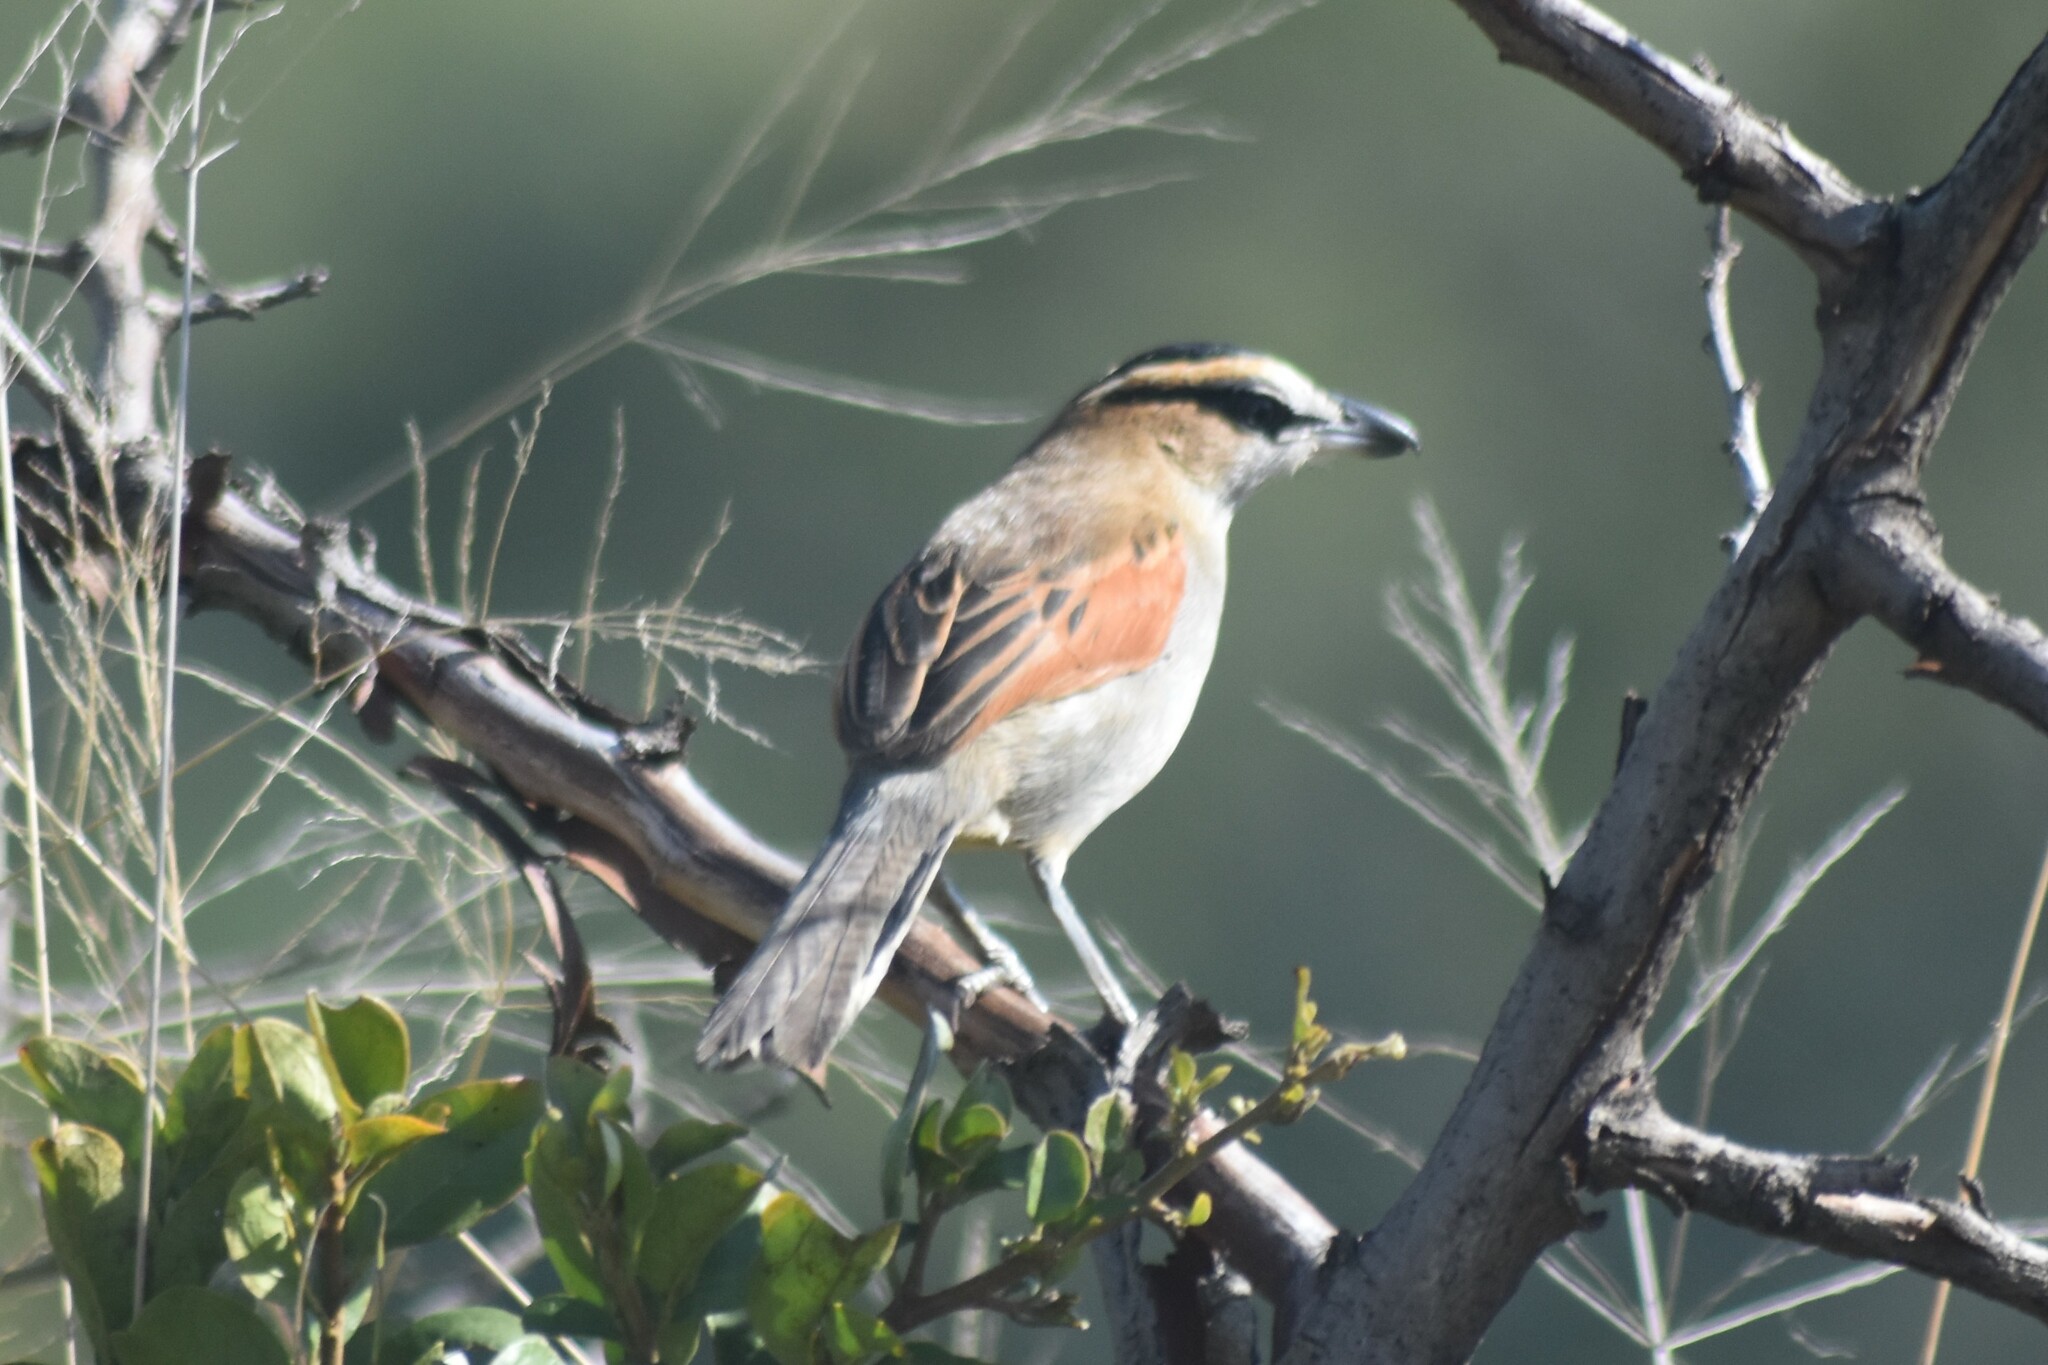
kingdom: Animalia
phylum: Chordata
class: Aves
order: Passeriformes
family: Malaconotidae
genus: Tchagra
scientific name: Tchagra senegalus
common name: Black-crowned tchagra
